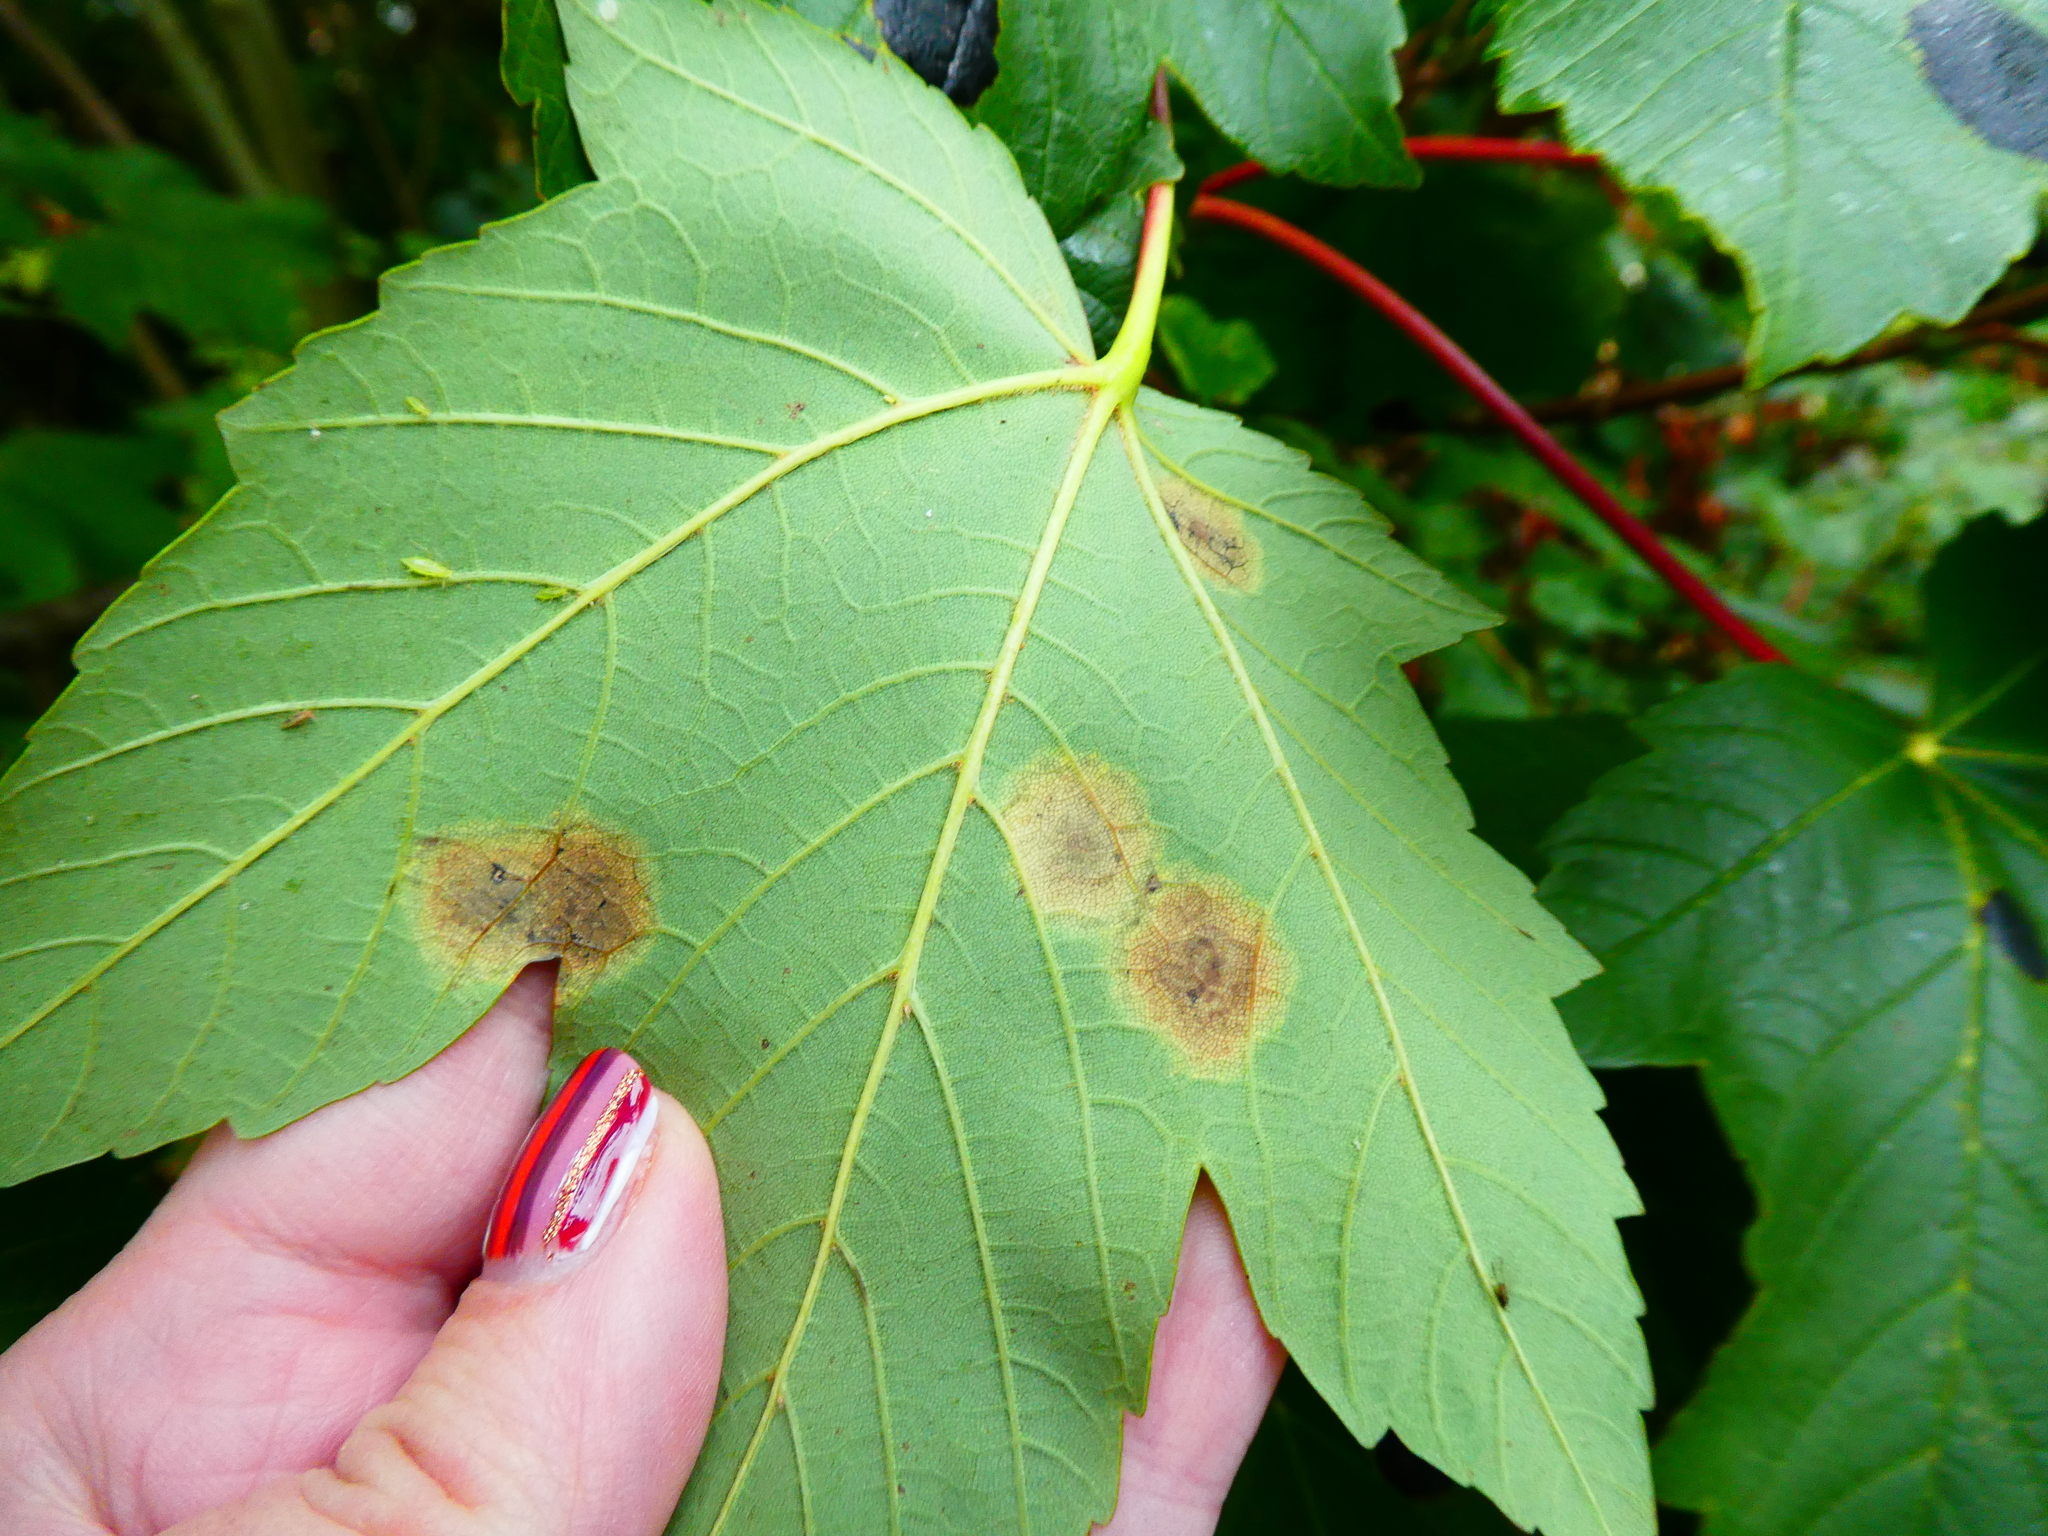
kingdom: Fungi
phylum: Ascomycota
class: Leotiomycetes
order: Rhytismatales
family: Rhytismataceae
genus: Rhytisma
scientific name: Rhytisma acerinum
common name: European tar spot
